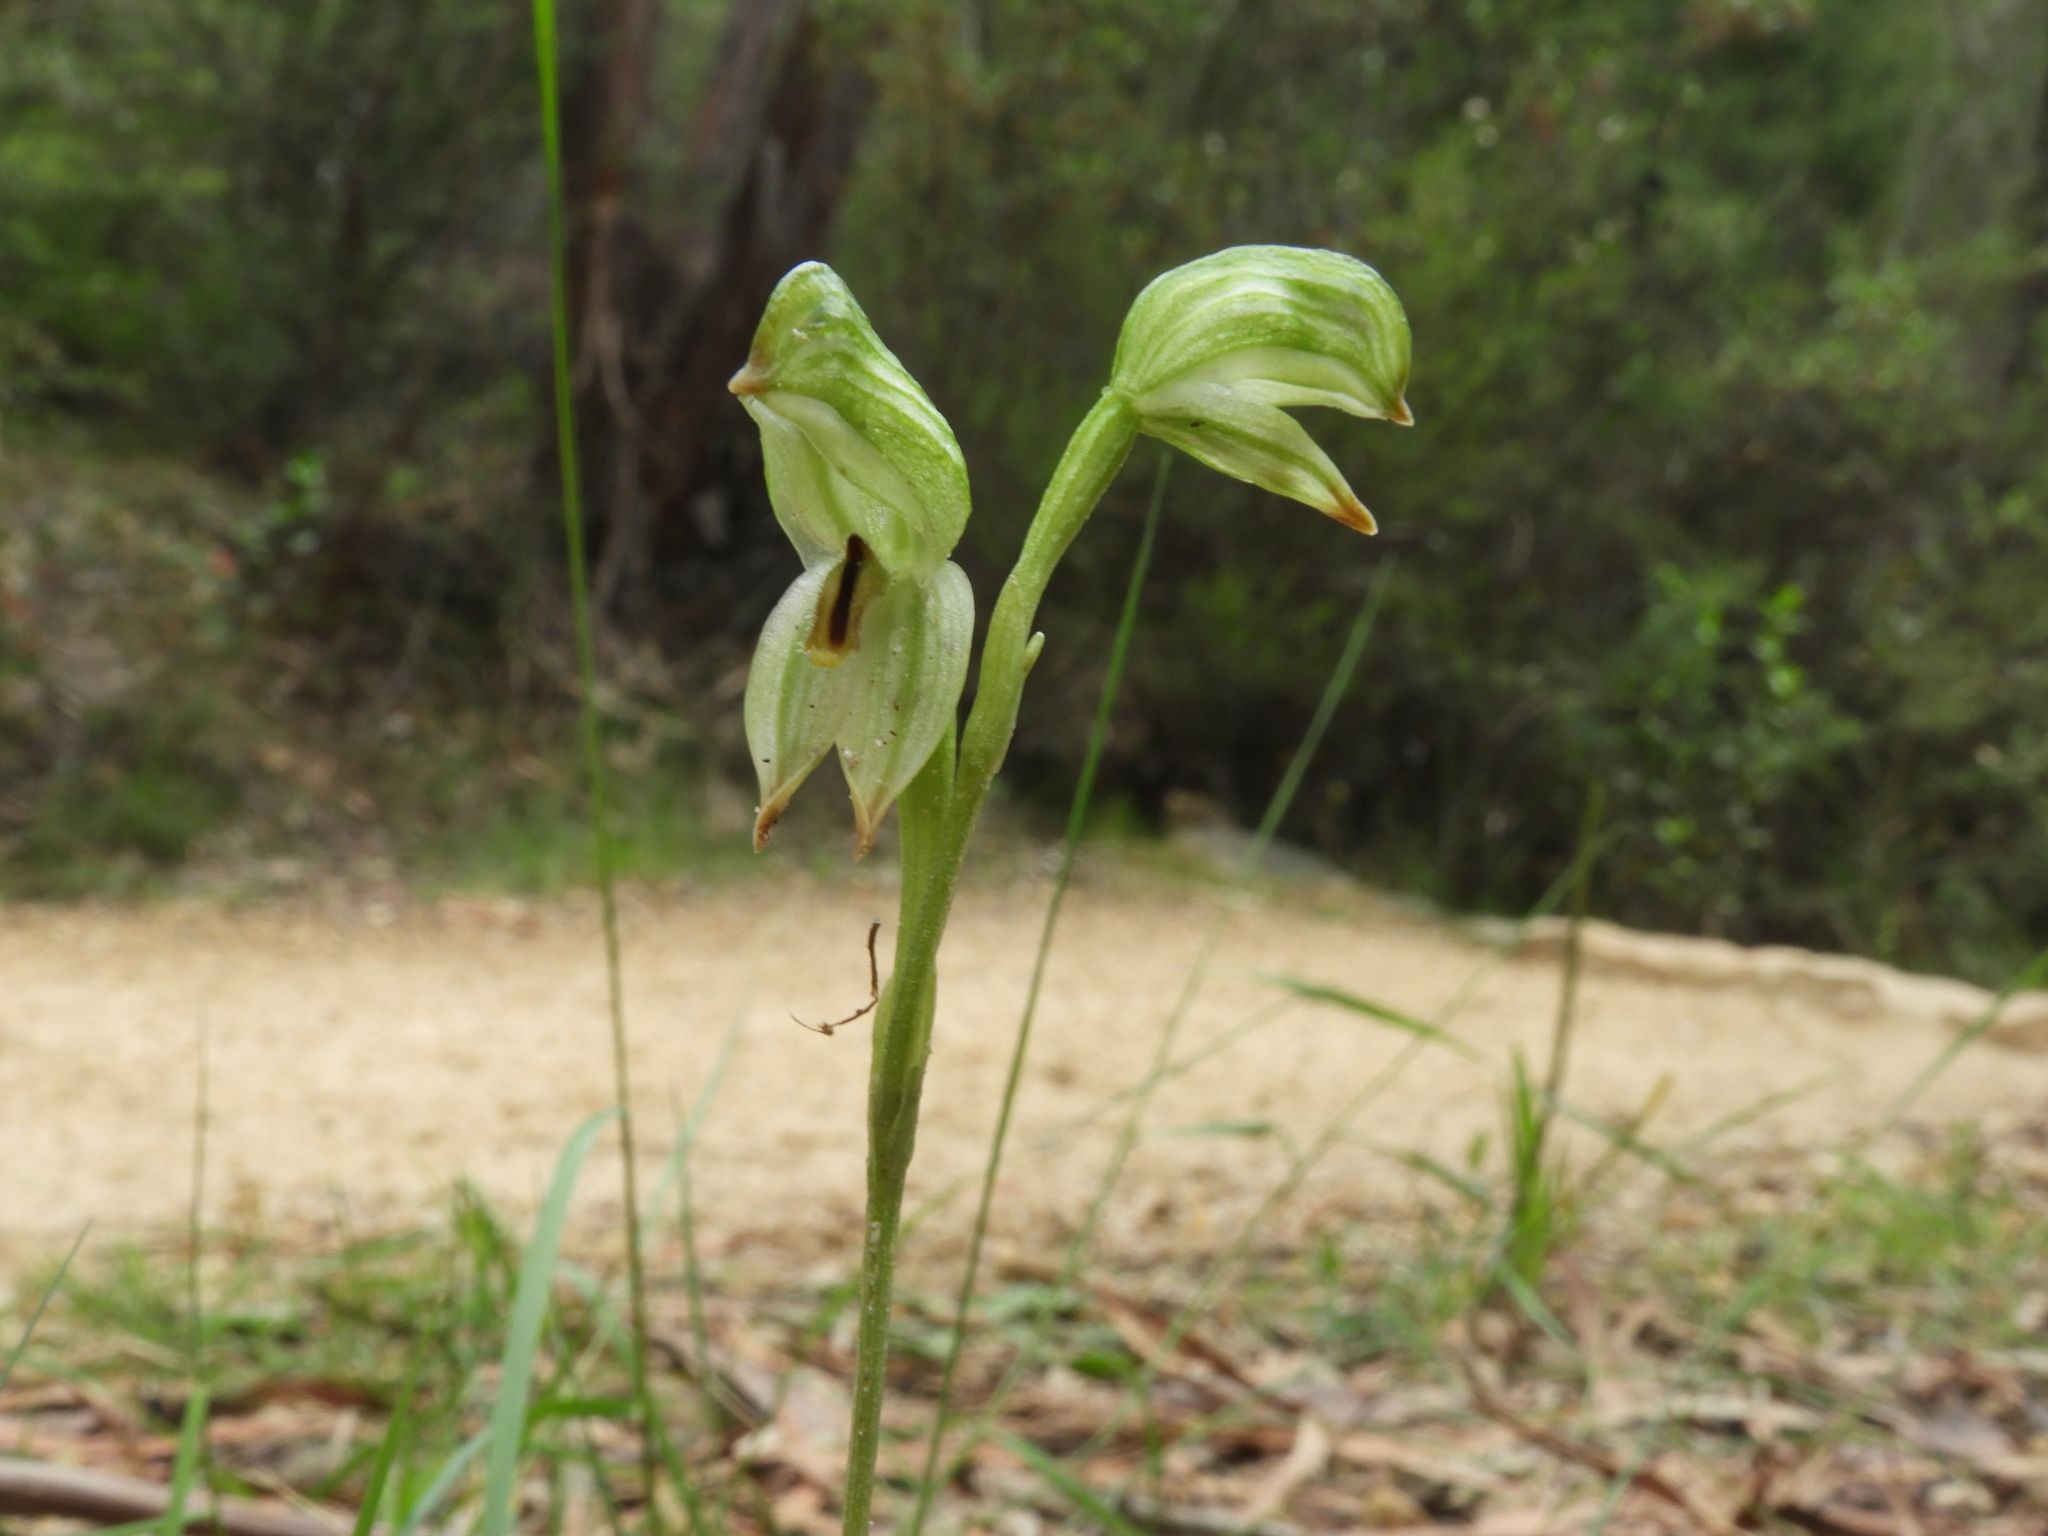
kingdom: Plantae
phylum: Tracheophyta
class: Liliopsida
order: Asparagales
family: Orchidaceae
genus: Pterostylis
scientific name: Pterostylis diminuta
